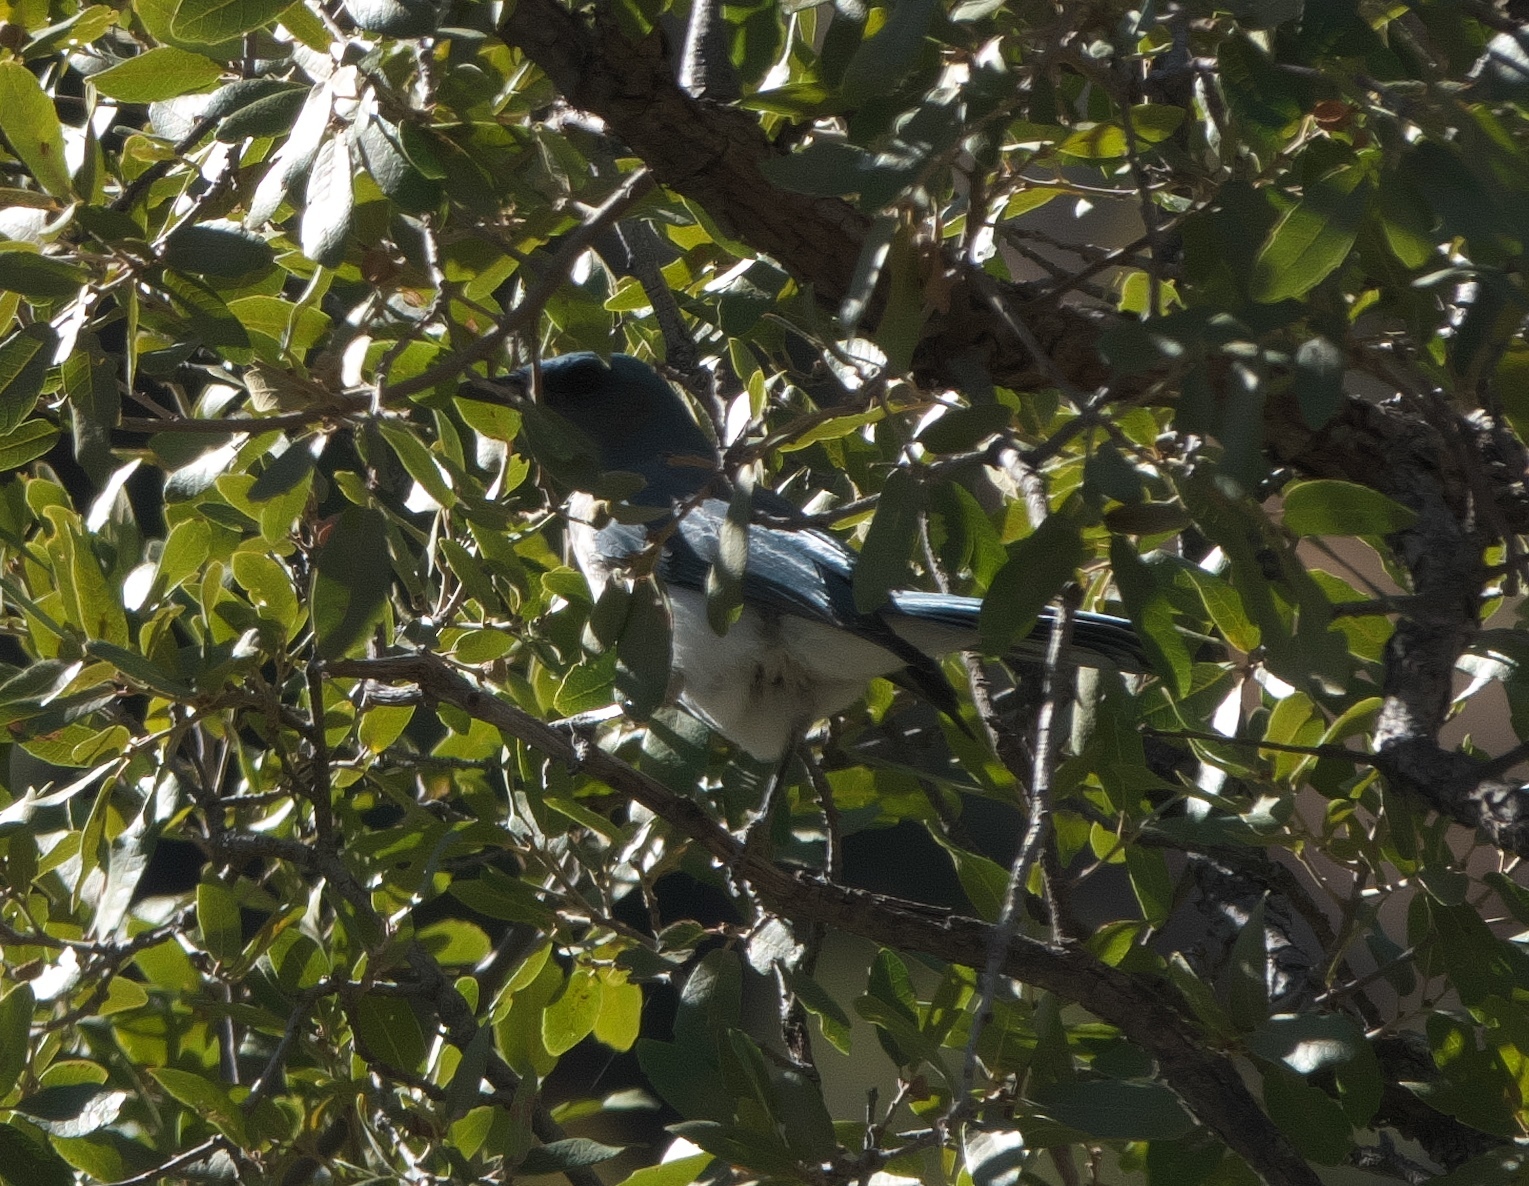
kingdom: Animalia
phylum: Chordata
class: Aves
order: Passeriformes
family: Corvidae
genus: Aphelocoma
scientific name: Aphelocoma wollweberi
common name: Mexican jay
